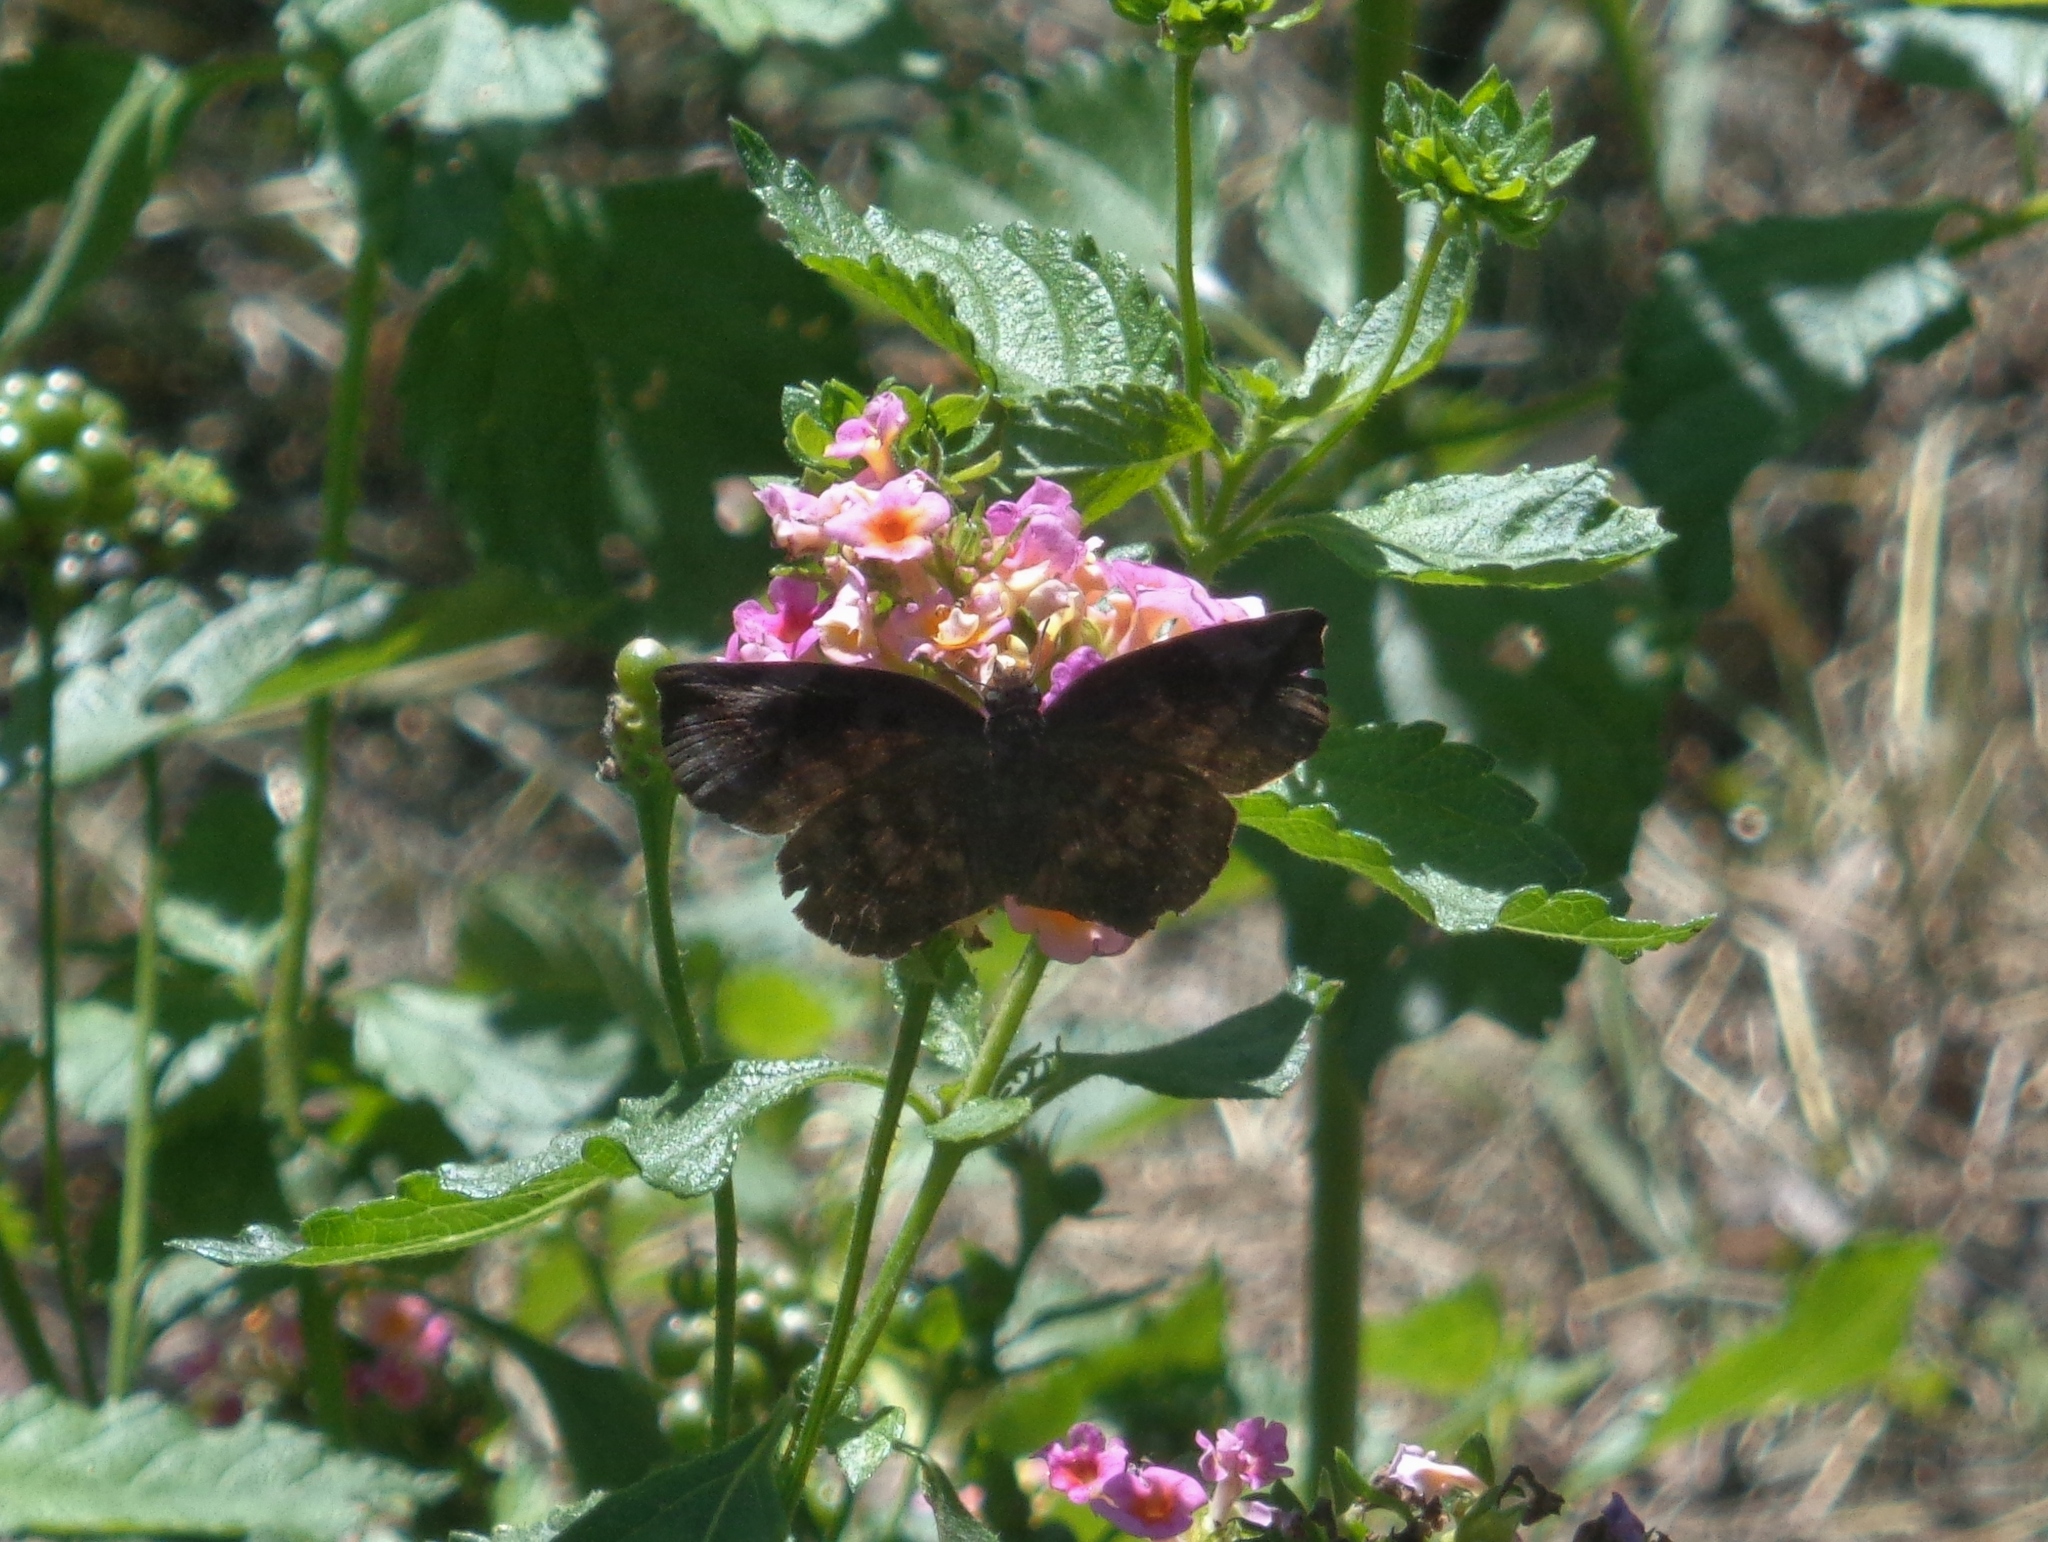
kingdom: Animalia
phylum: Arthropoda
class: Insecta
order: Lepidoptera
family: Hesperiidae
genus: Achlyodes
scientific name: Achlyodes thraso
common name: Sickle-winged skipper
